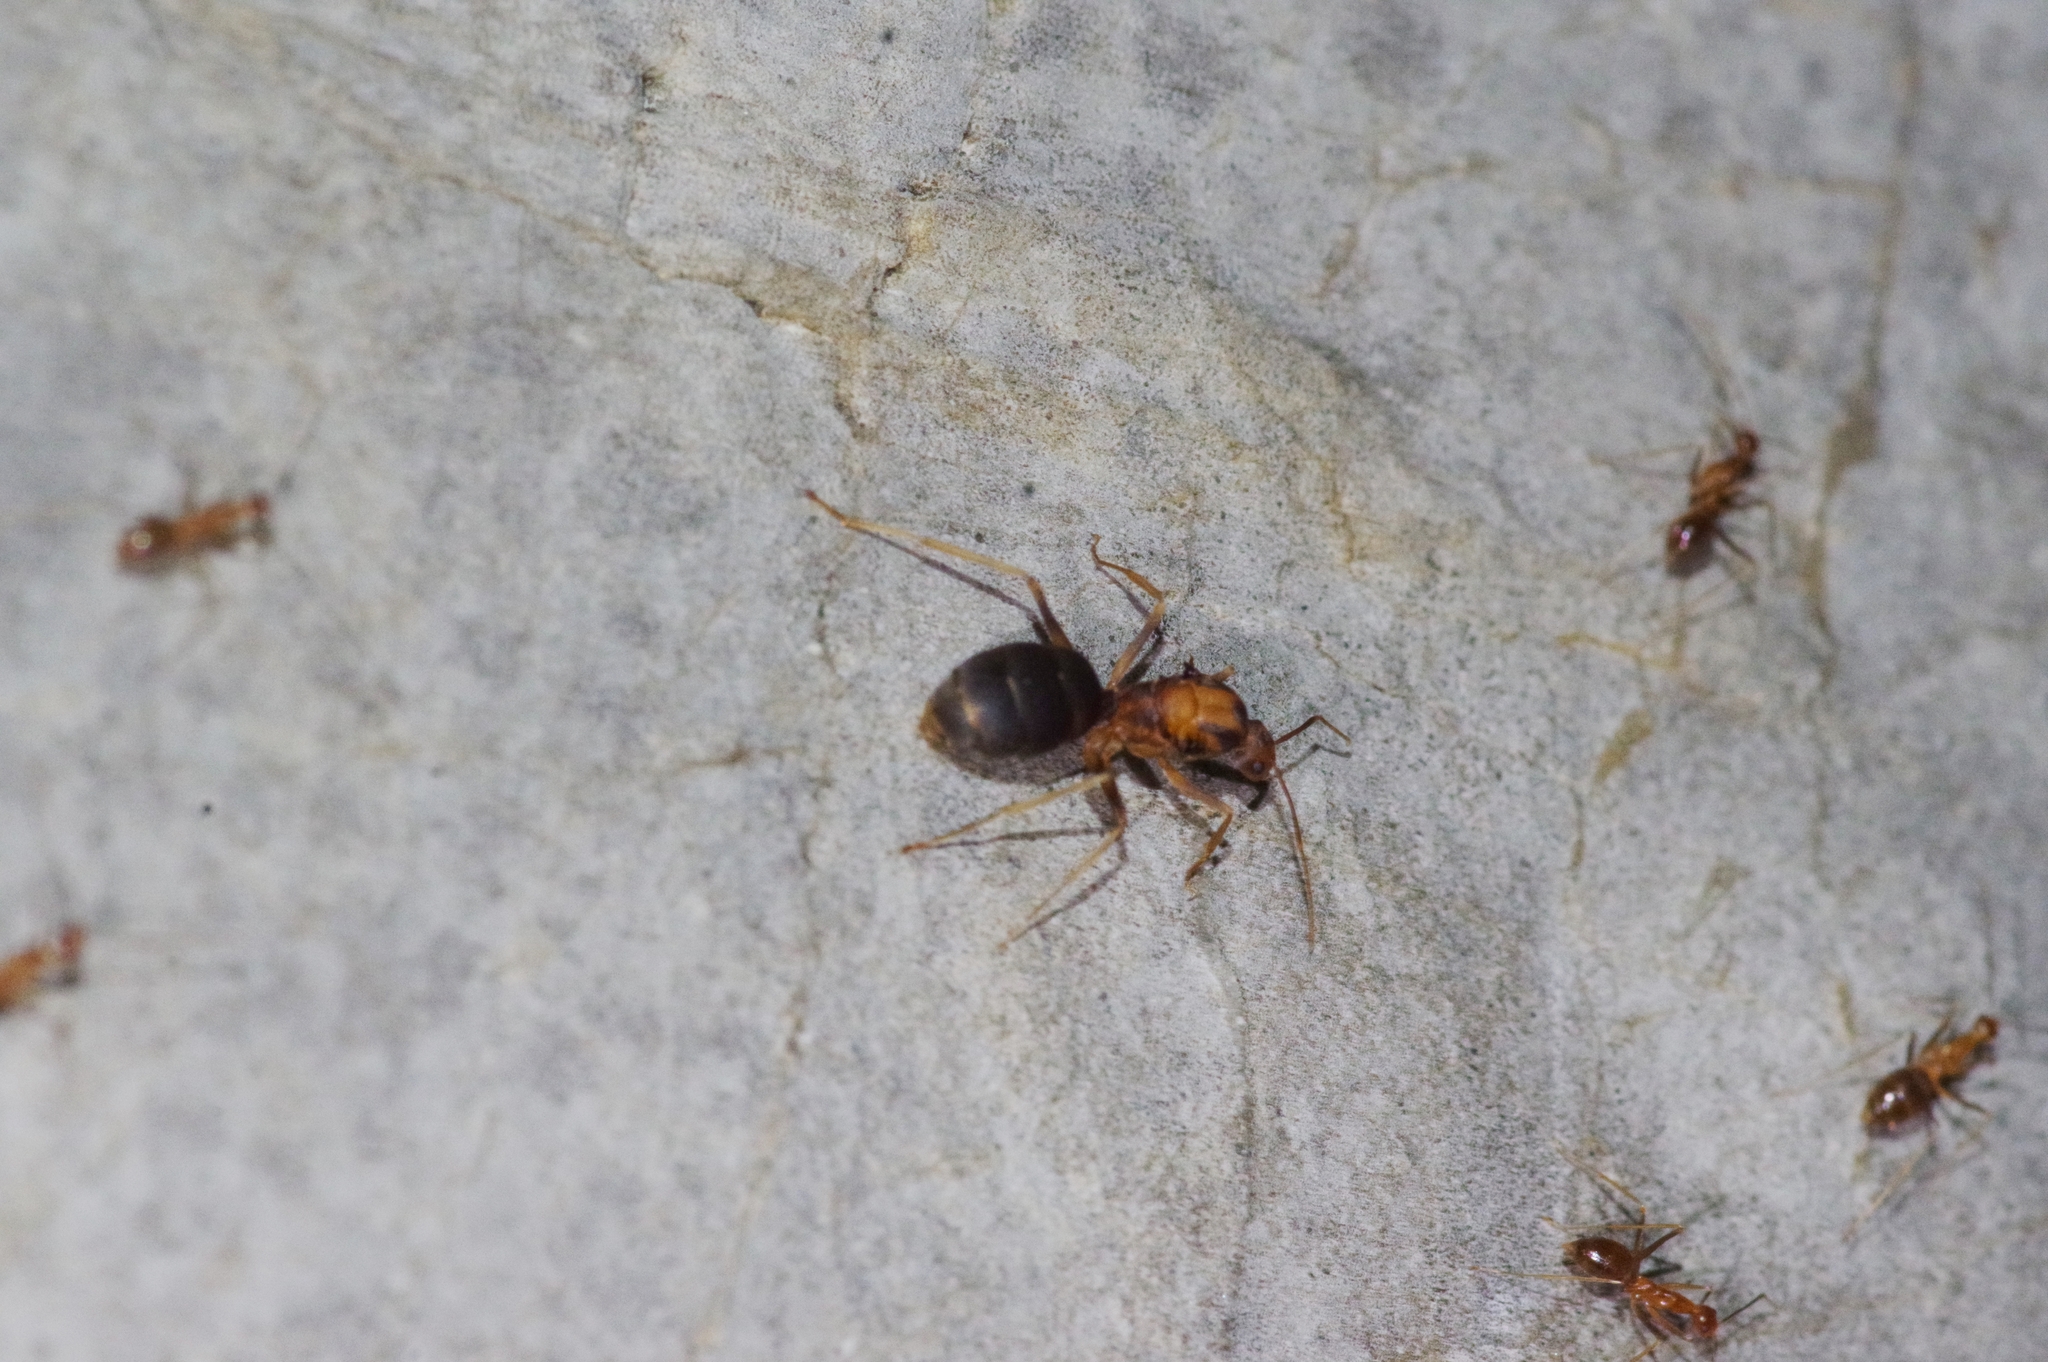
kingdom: Animalia
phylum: Arthropoda
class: Insecta
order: Hymenoptera
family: Formicidae
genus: Anoplolepis
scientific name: Anoplolepis gracilipes
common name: Ant
